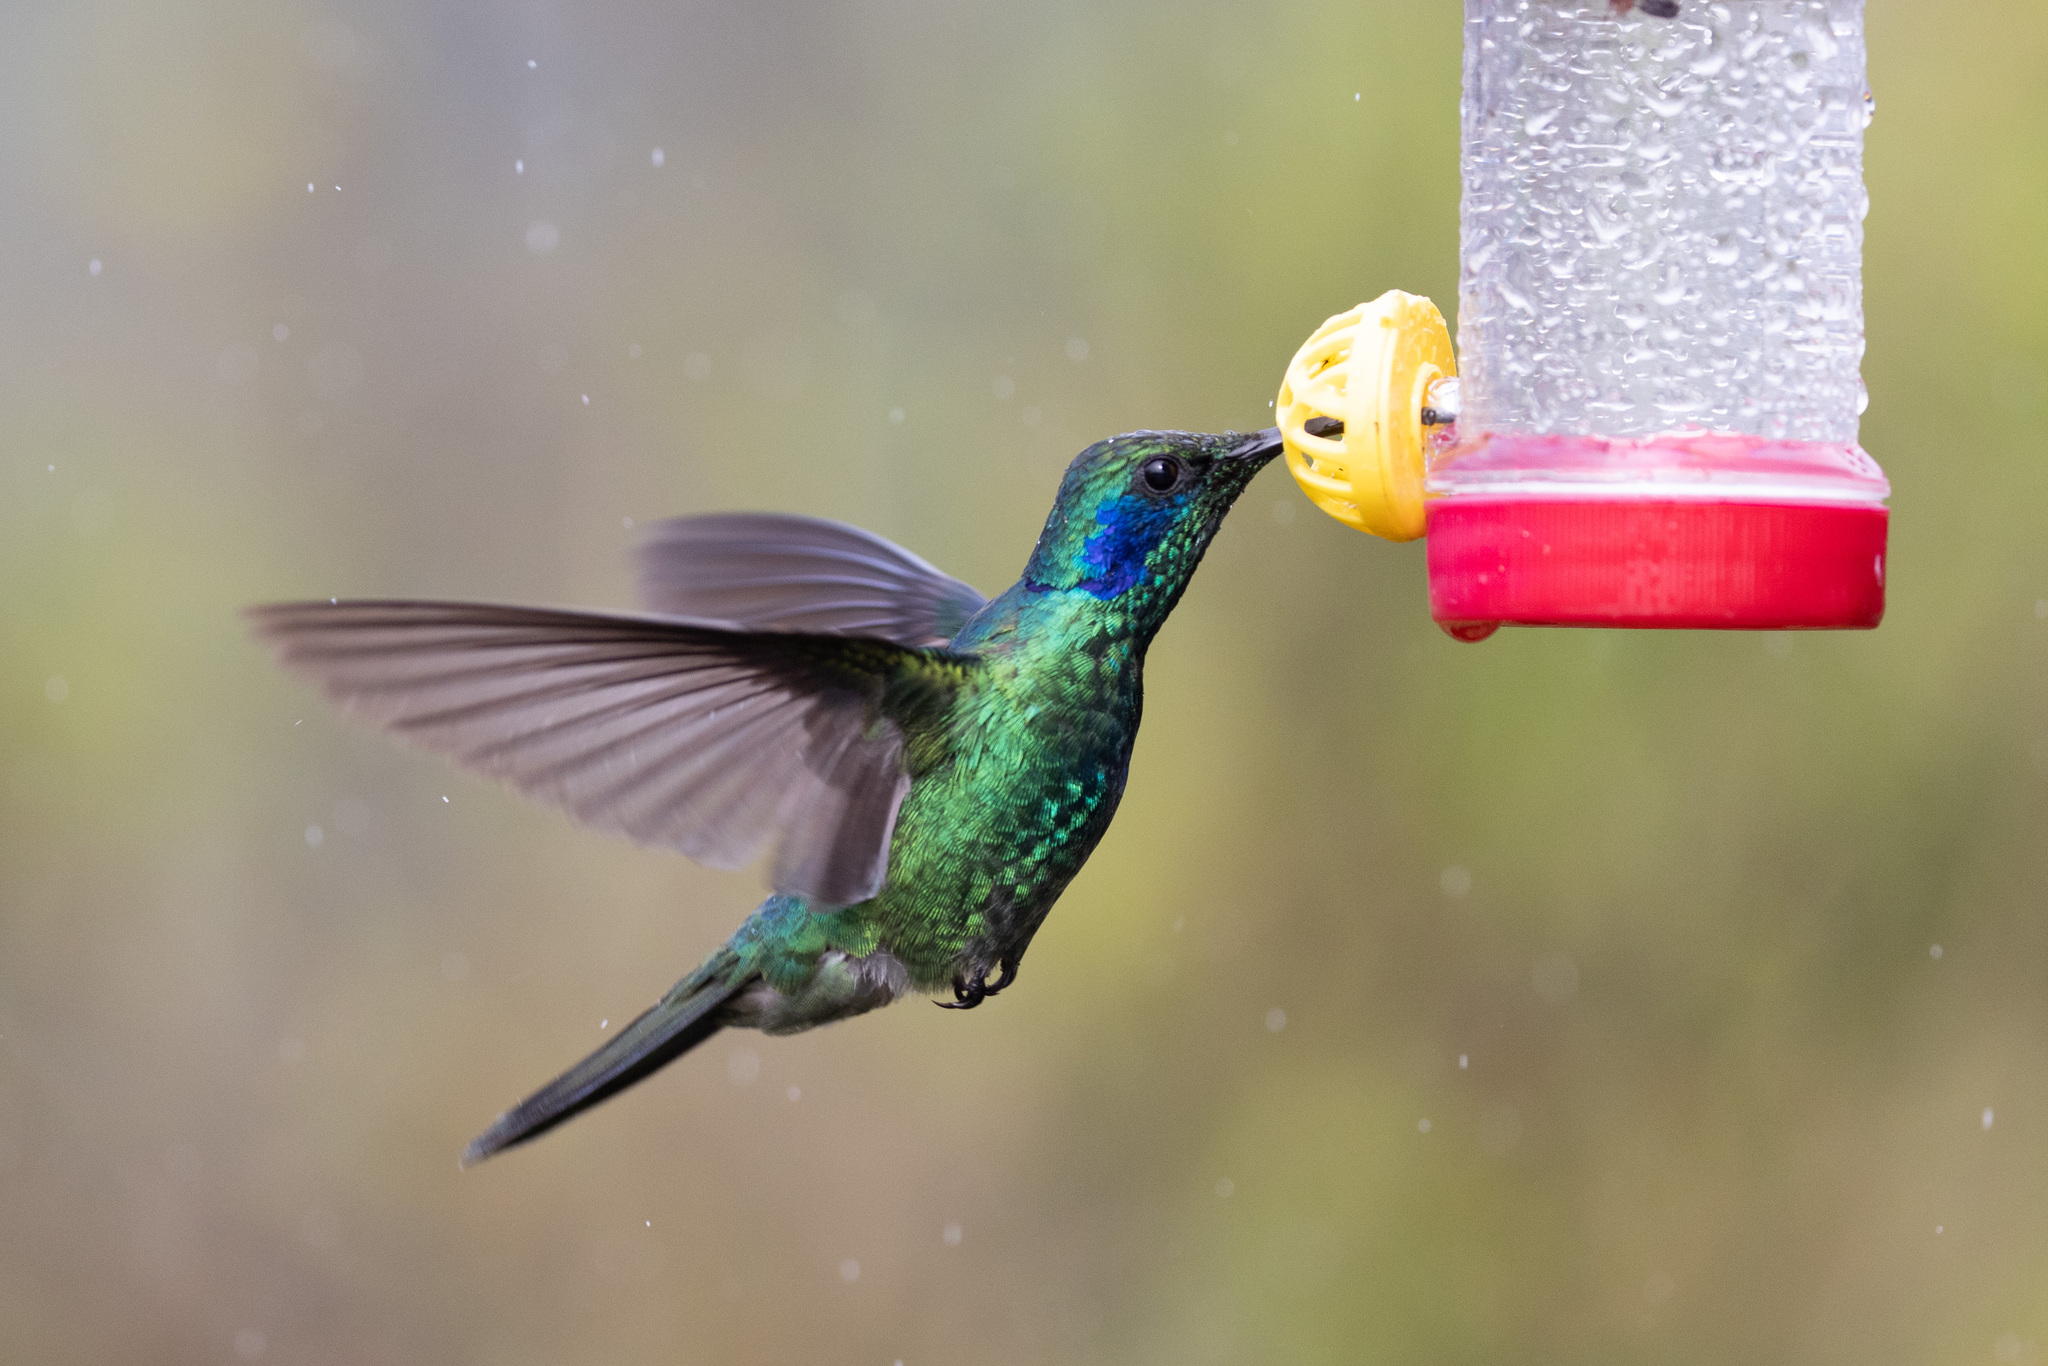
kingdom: Animalia
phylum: Chordata
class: Aves
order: Apodiformes
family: Trochilidae
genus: Colibri
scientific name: Colibri cyanotus
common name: Lesser violetear
